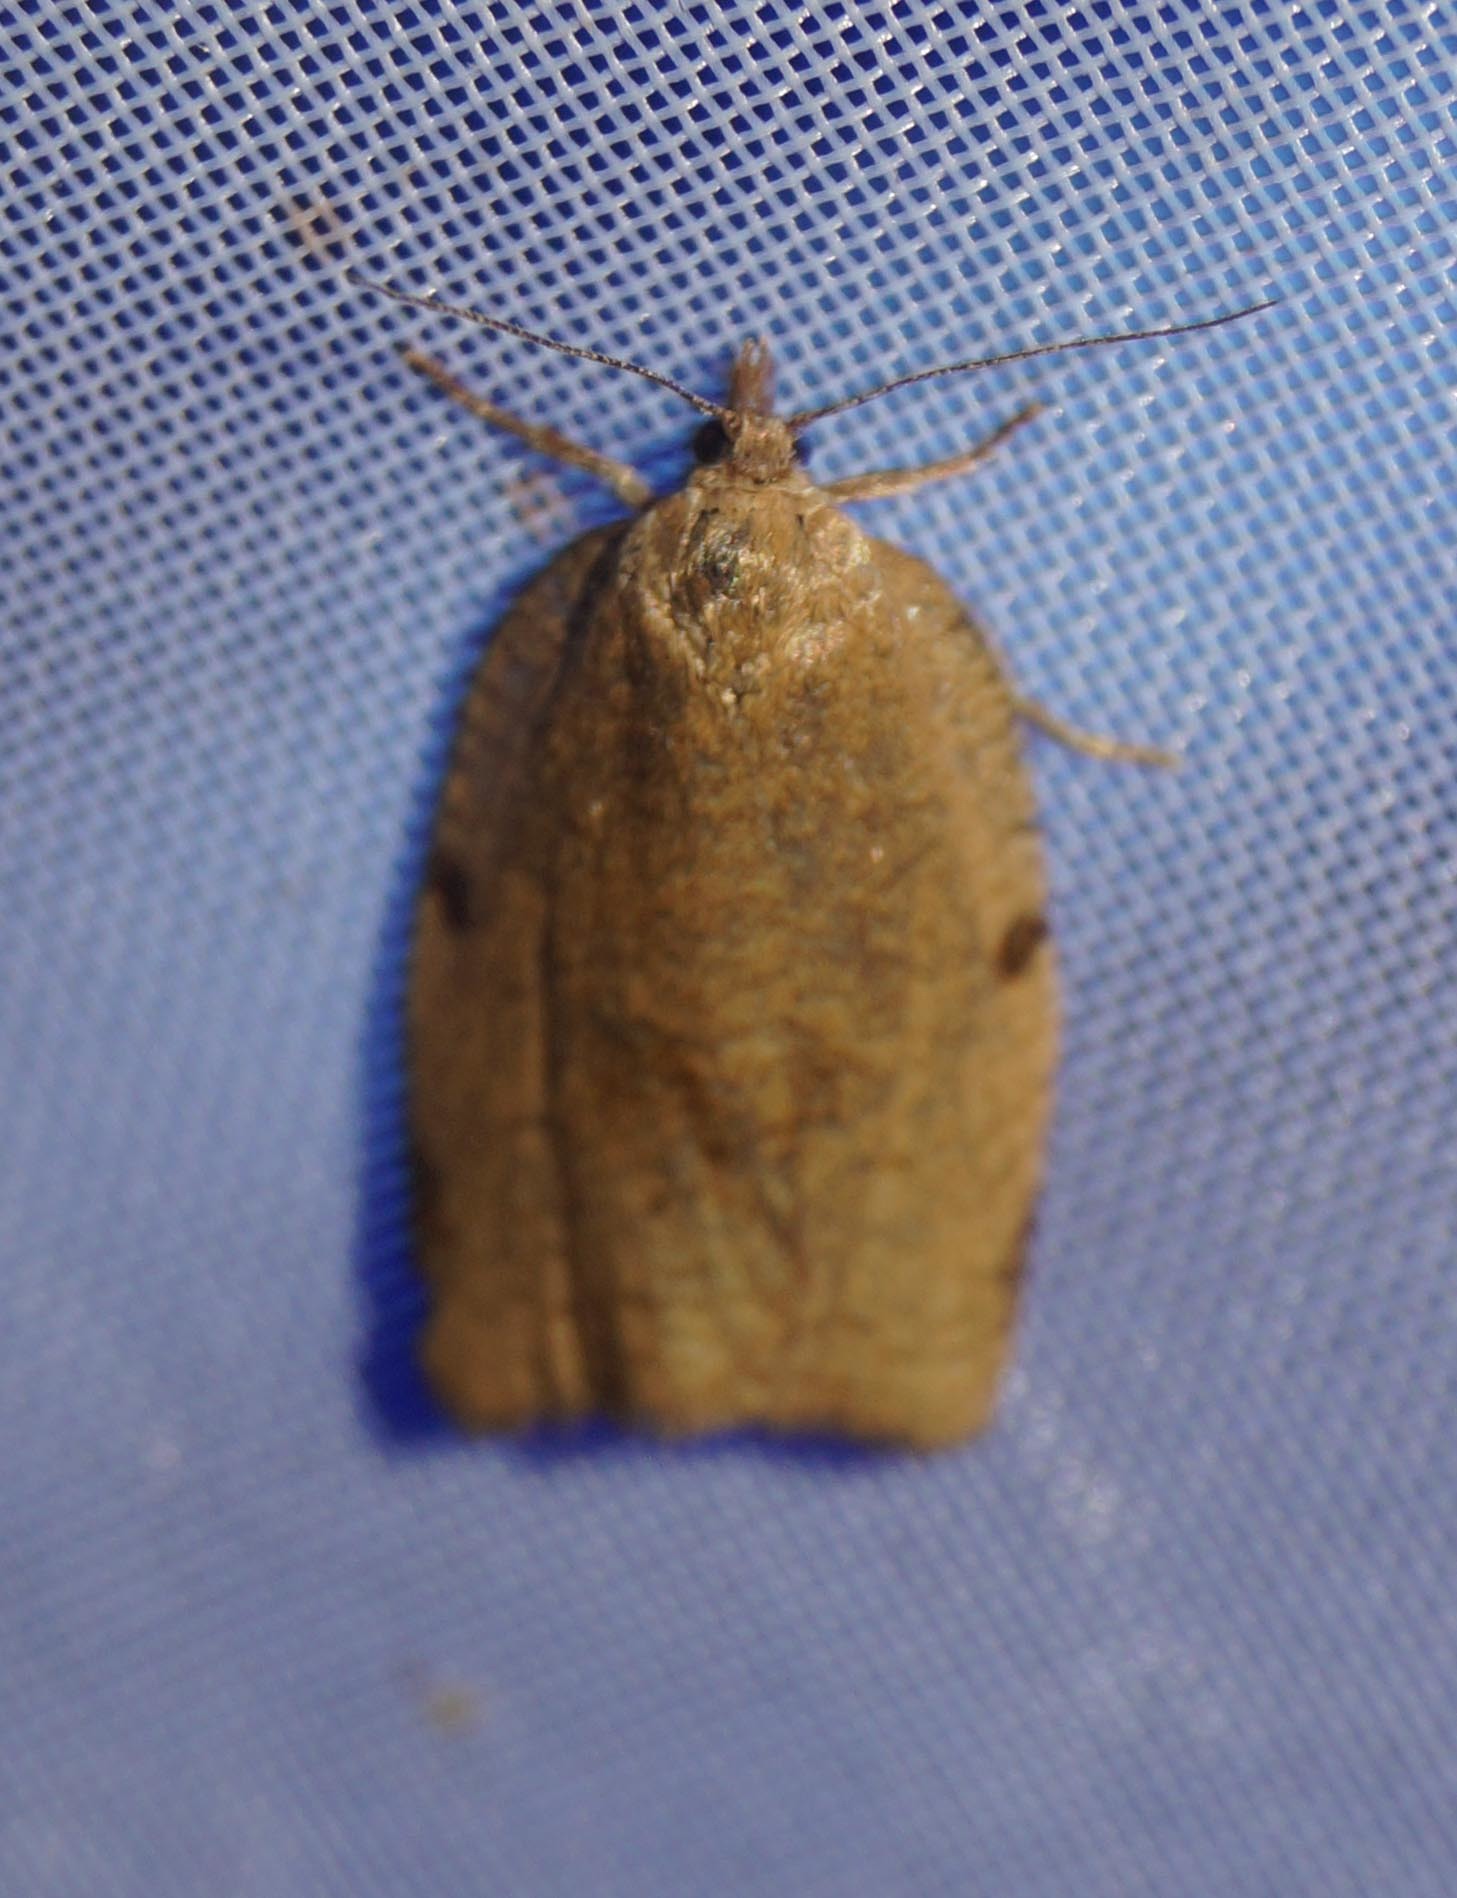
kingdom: Animalia
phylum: Arthropoda
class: Insecta
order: Lepidoptera
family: Tortricidae
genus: Lozotaenia
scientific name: Lozotaenia forsterana
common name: Large ivy twist
